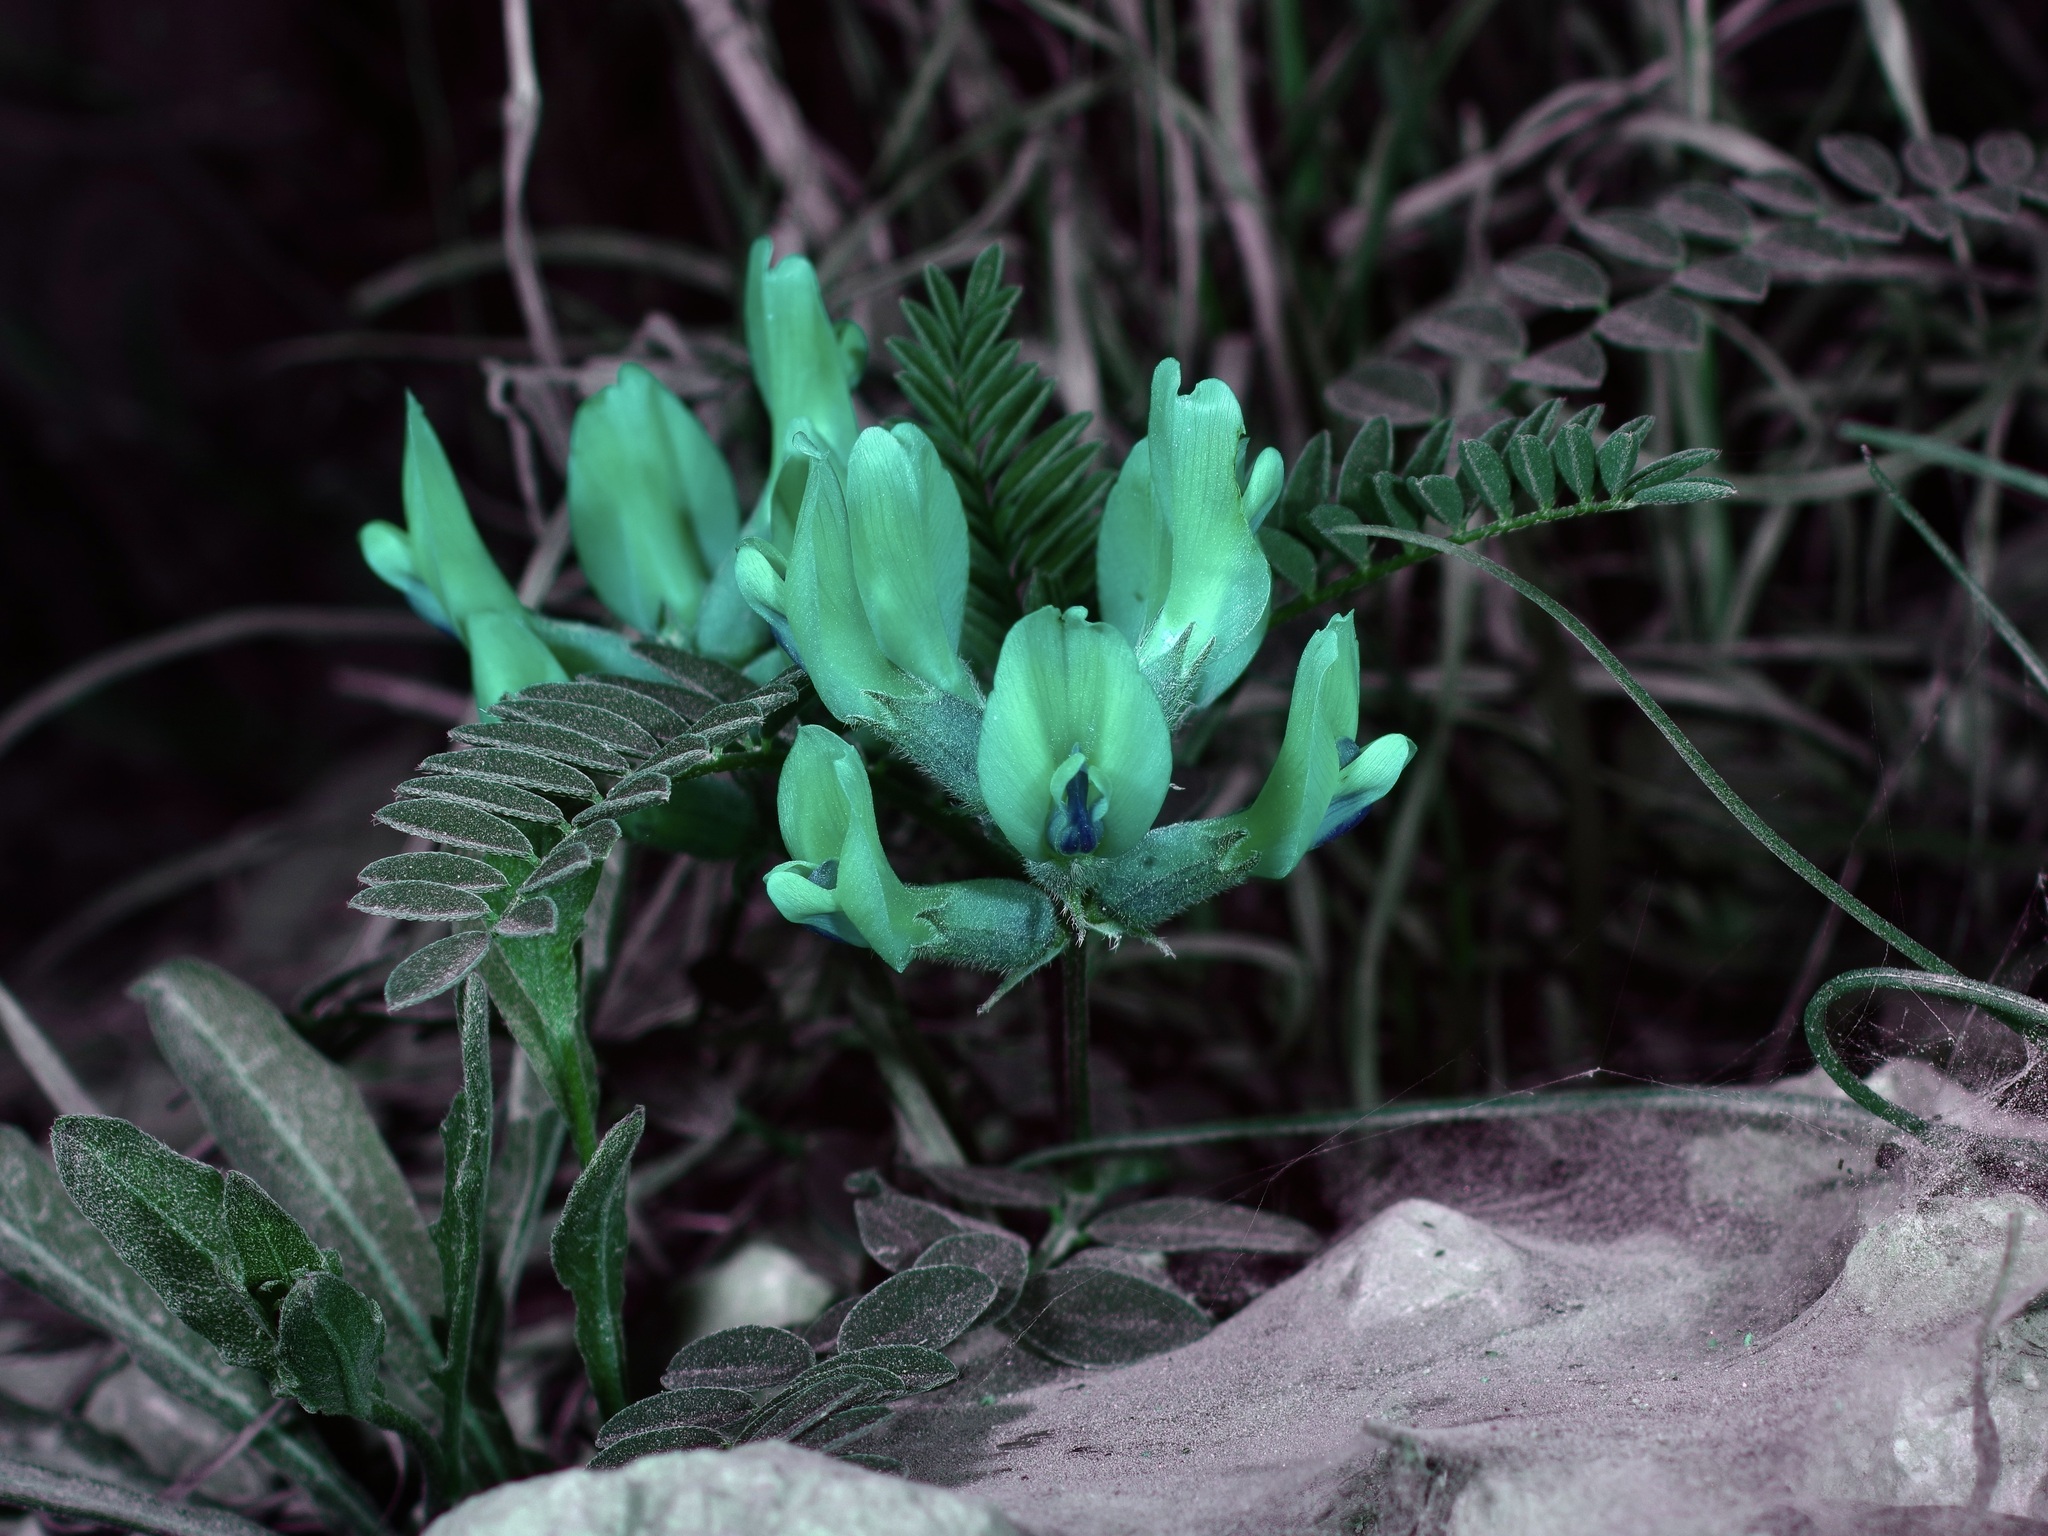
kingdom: Plantae
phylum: Tracheophyta
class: Magnoliopsida
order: Fabales
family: Fabaceae
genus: Astragalus
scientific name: Astragalus crassicarpus
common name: Ground-plum milk-vetch
